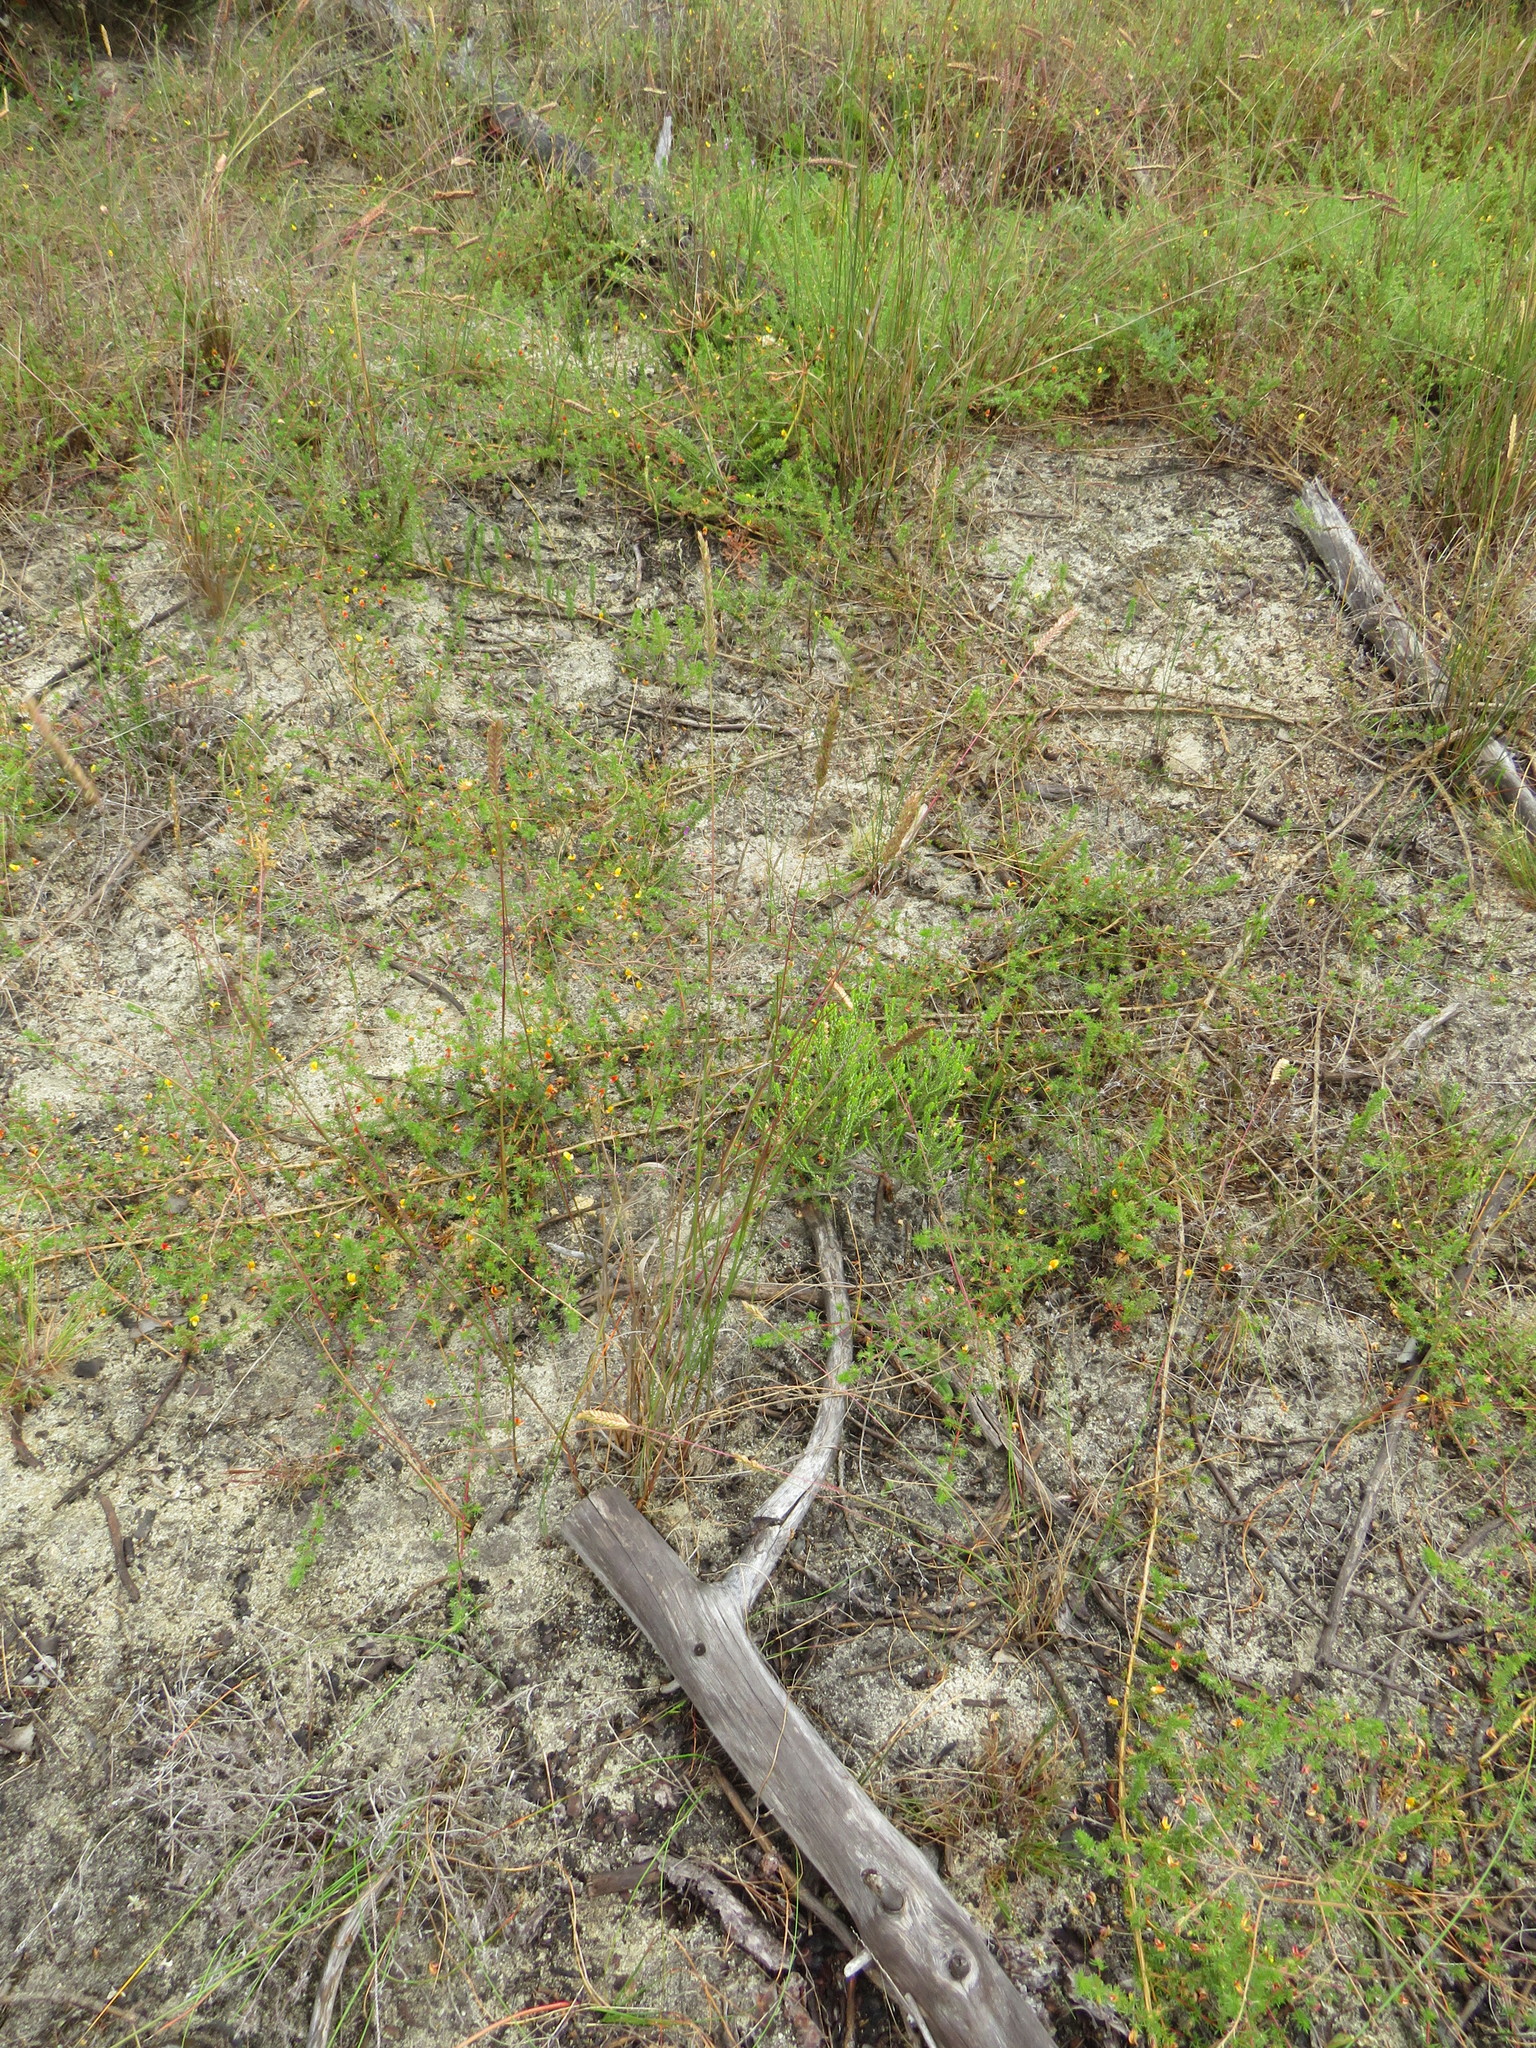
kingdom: Plantae
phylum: Tracheophyta
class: Liliopsida
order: Poales
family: Poaceae
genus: Tribolium
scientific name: Tribolium uniolae
